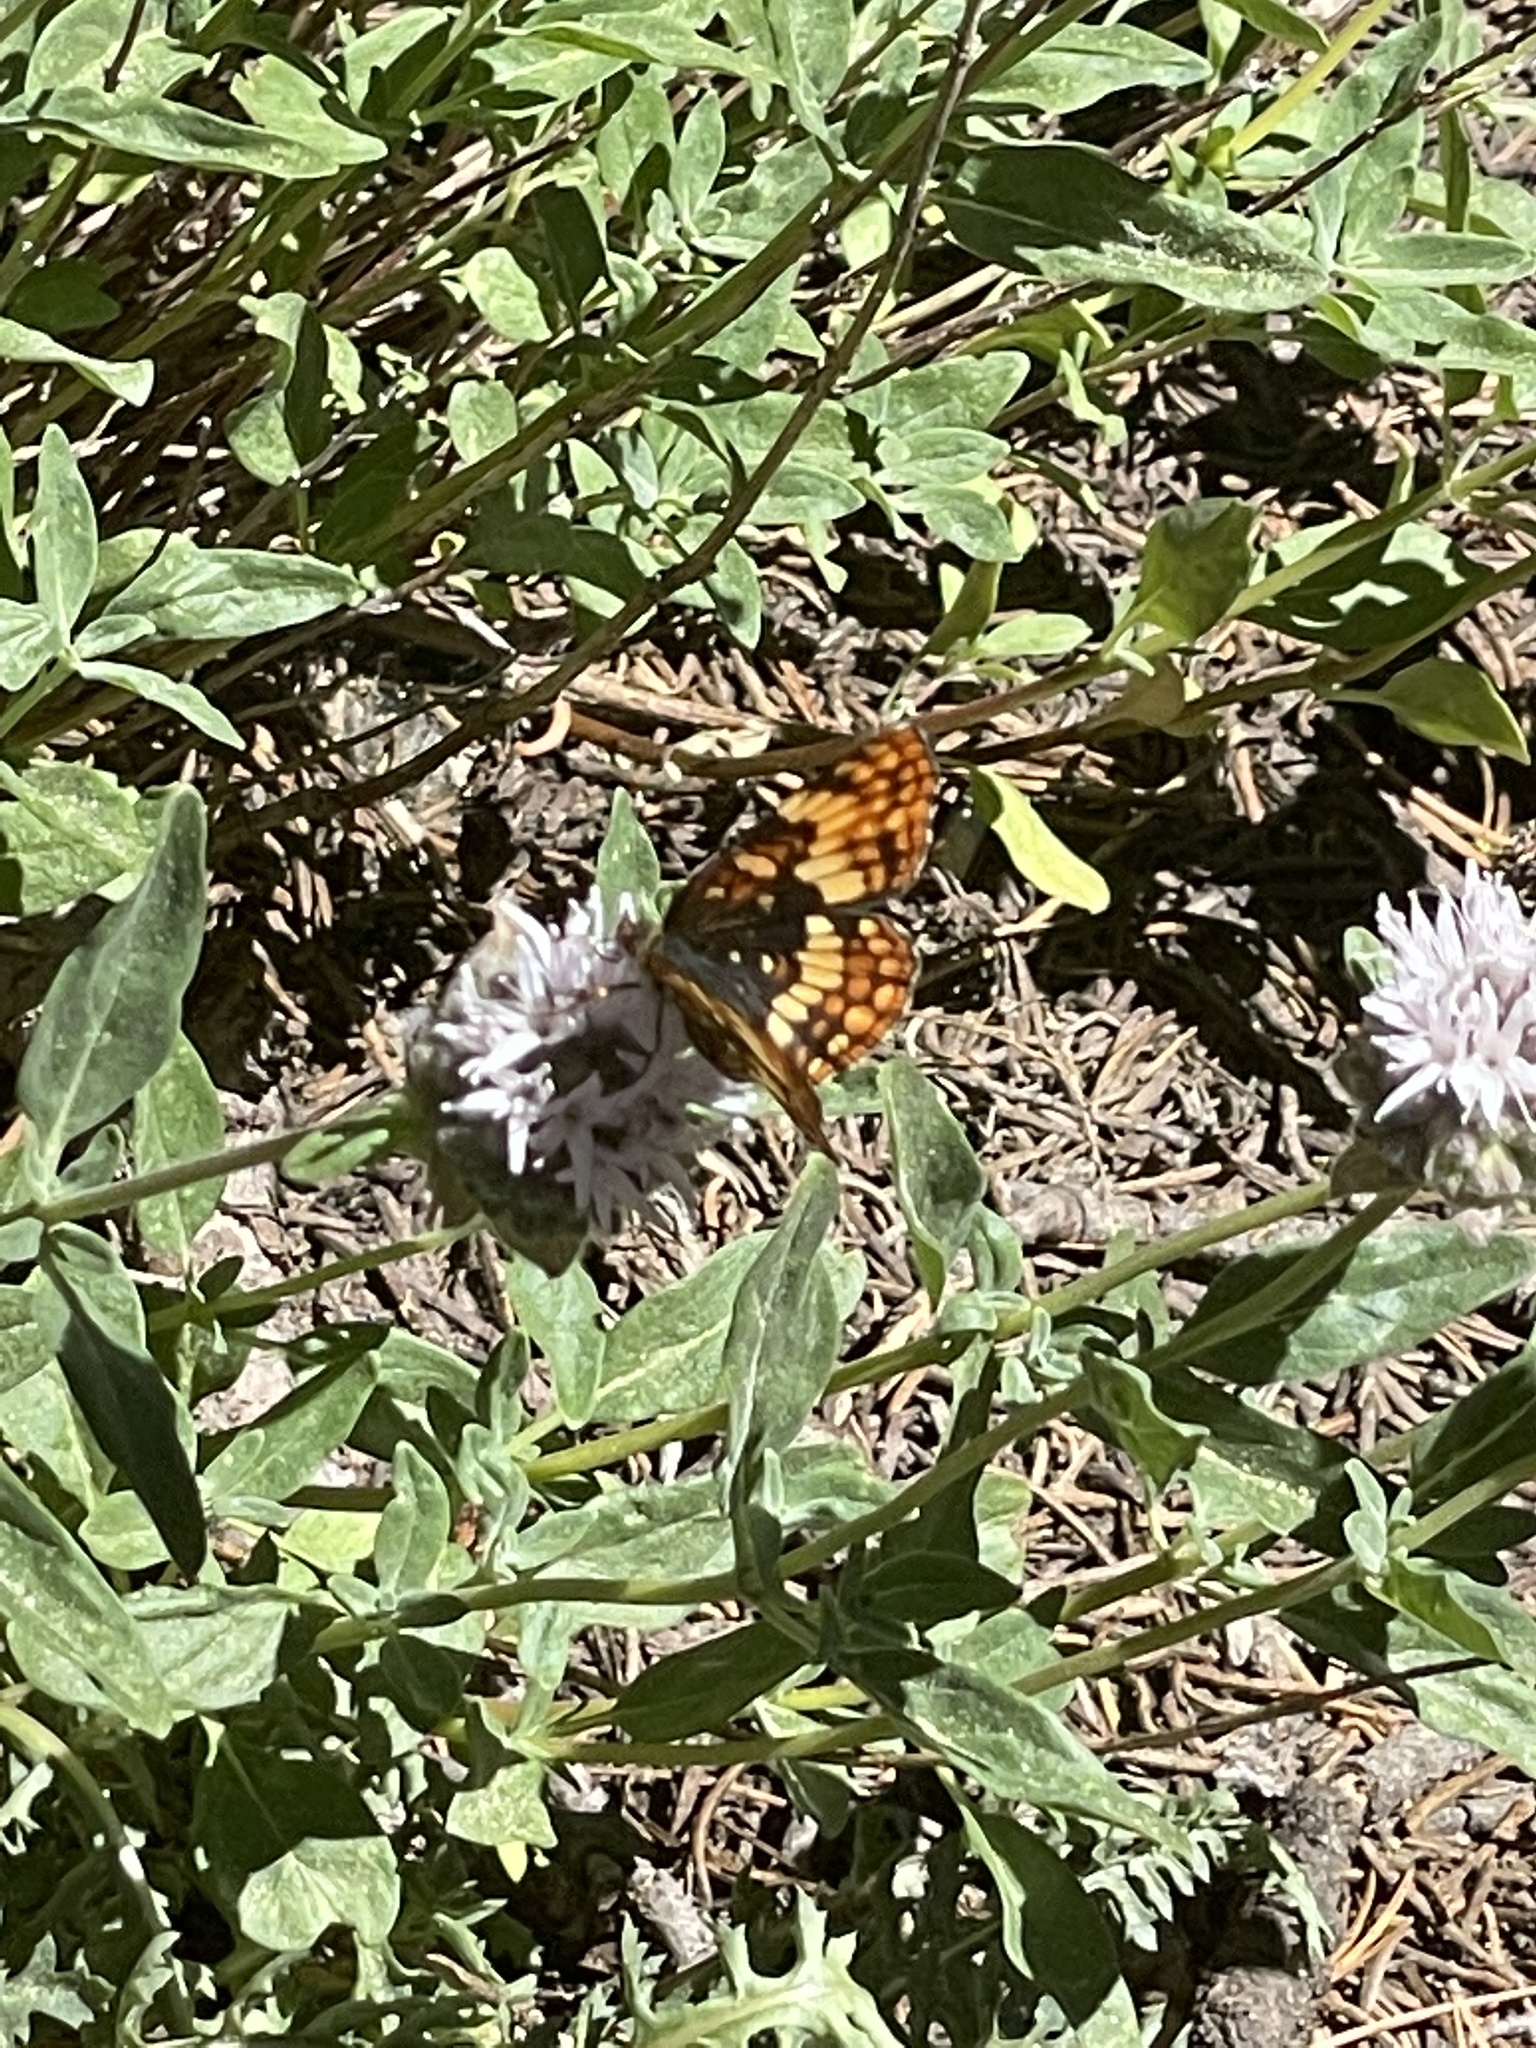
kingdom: Animalia
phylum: Arthropoda
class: Insecta
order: Lepidoptera
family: Nymphalidae
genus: Chlosyne
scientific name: Chlosyne hoffmanni
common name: Hoffmann's checkerspot
